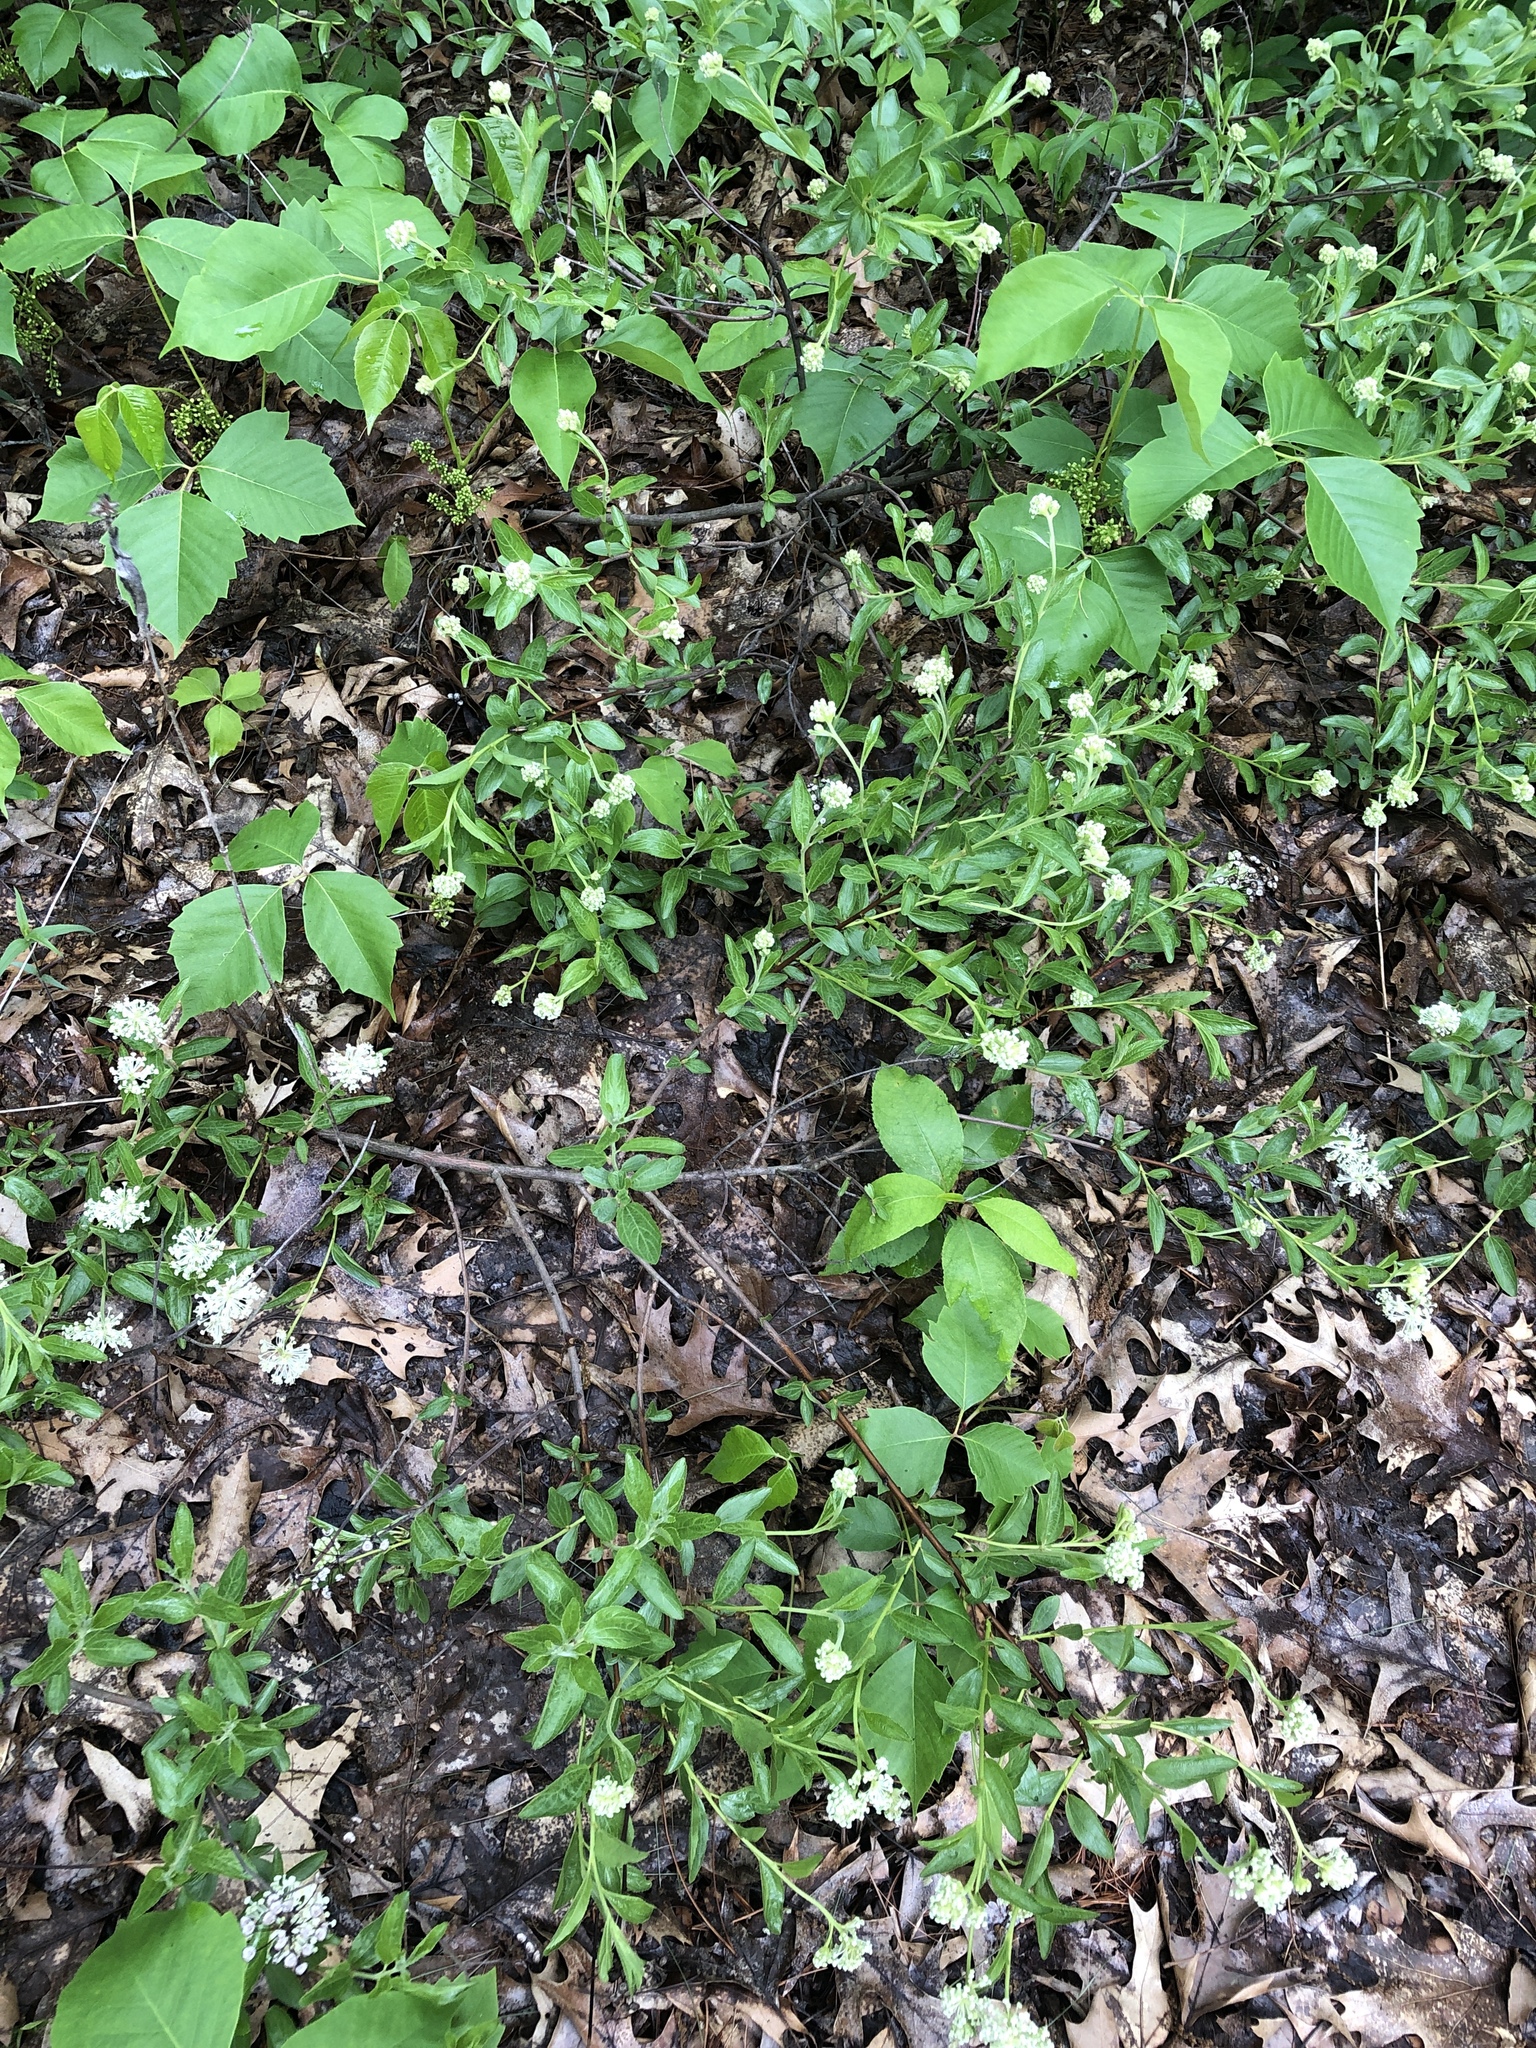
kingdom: Plantae
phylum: Tracheophyta
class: Magnoliopsida
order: Rosales
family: Rhamnaceae
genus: Ceanothus
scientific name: Ceanothus herbaceus
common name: Inland ceanothus
